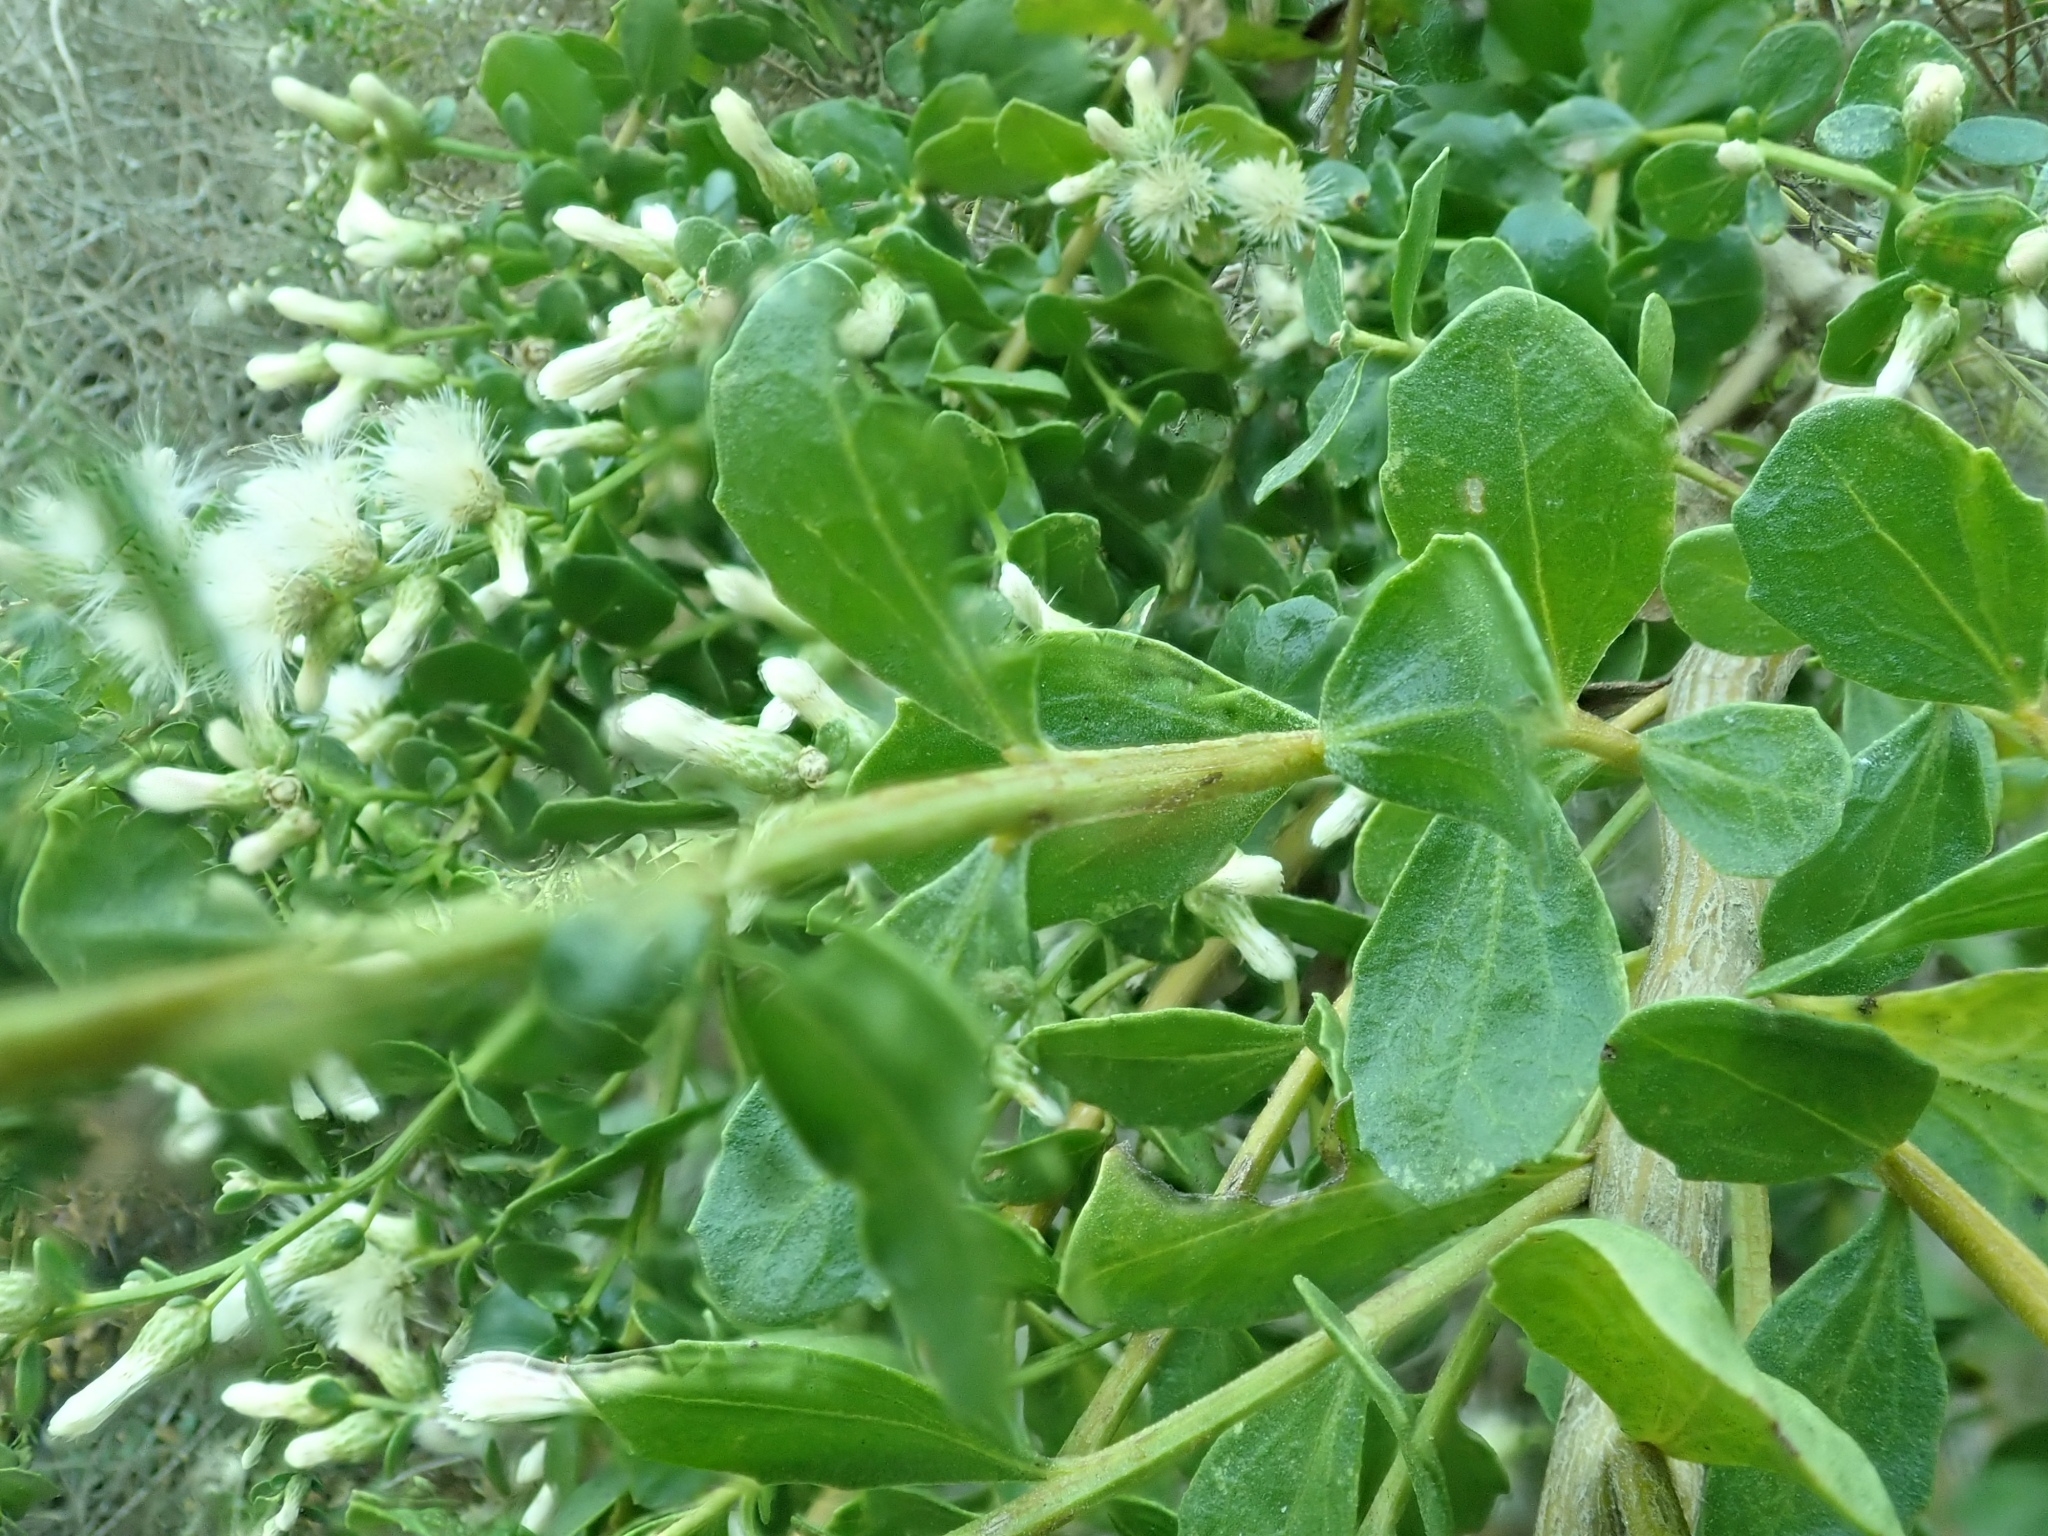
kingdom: Plantae
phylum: Tracheophyta
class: Magnoliopsida
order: Asterales
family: Asteraceae
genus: Baccharis
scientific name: Baccharis pilularis
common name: Coyotebrush
